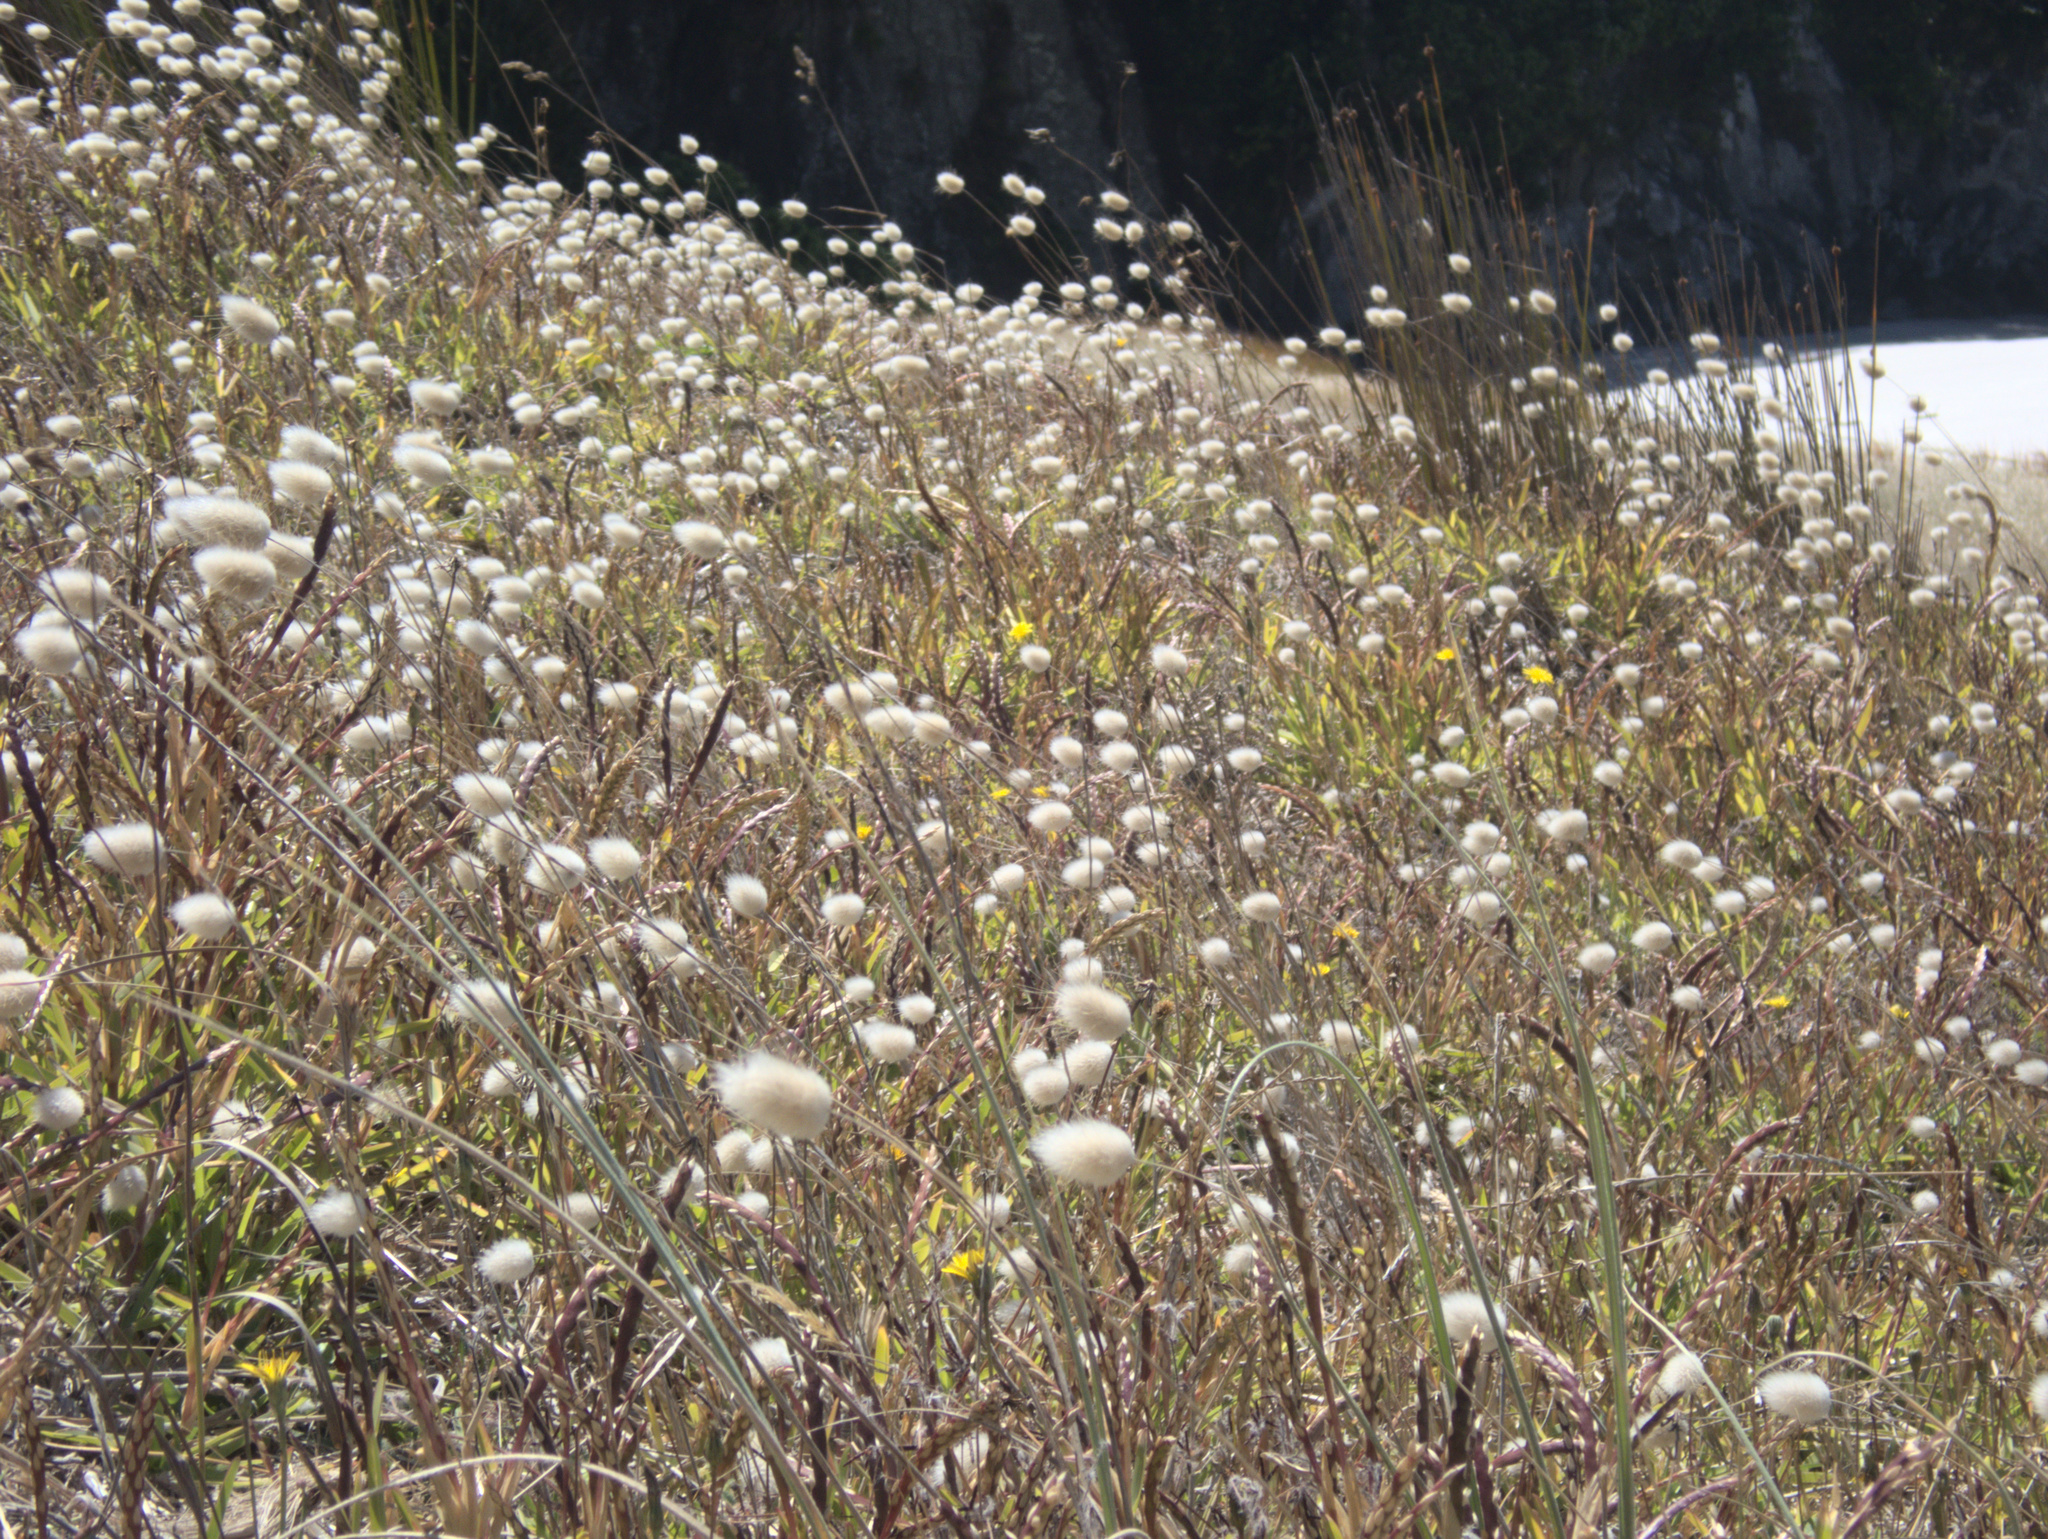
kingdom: Plantae
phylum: Tracheophyta
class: Liliopsida
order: Poales
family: Poaceae
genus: Lagurus
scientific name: Lagurus ovatus
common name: Hare's-tail
